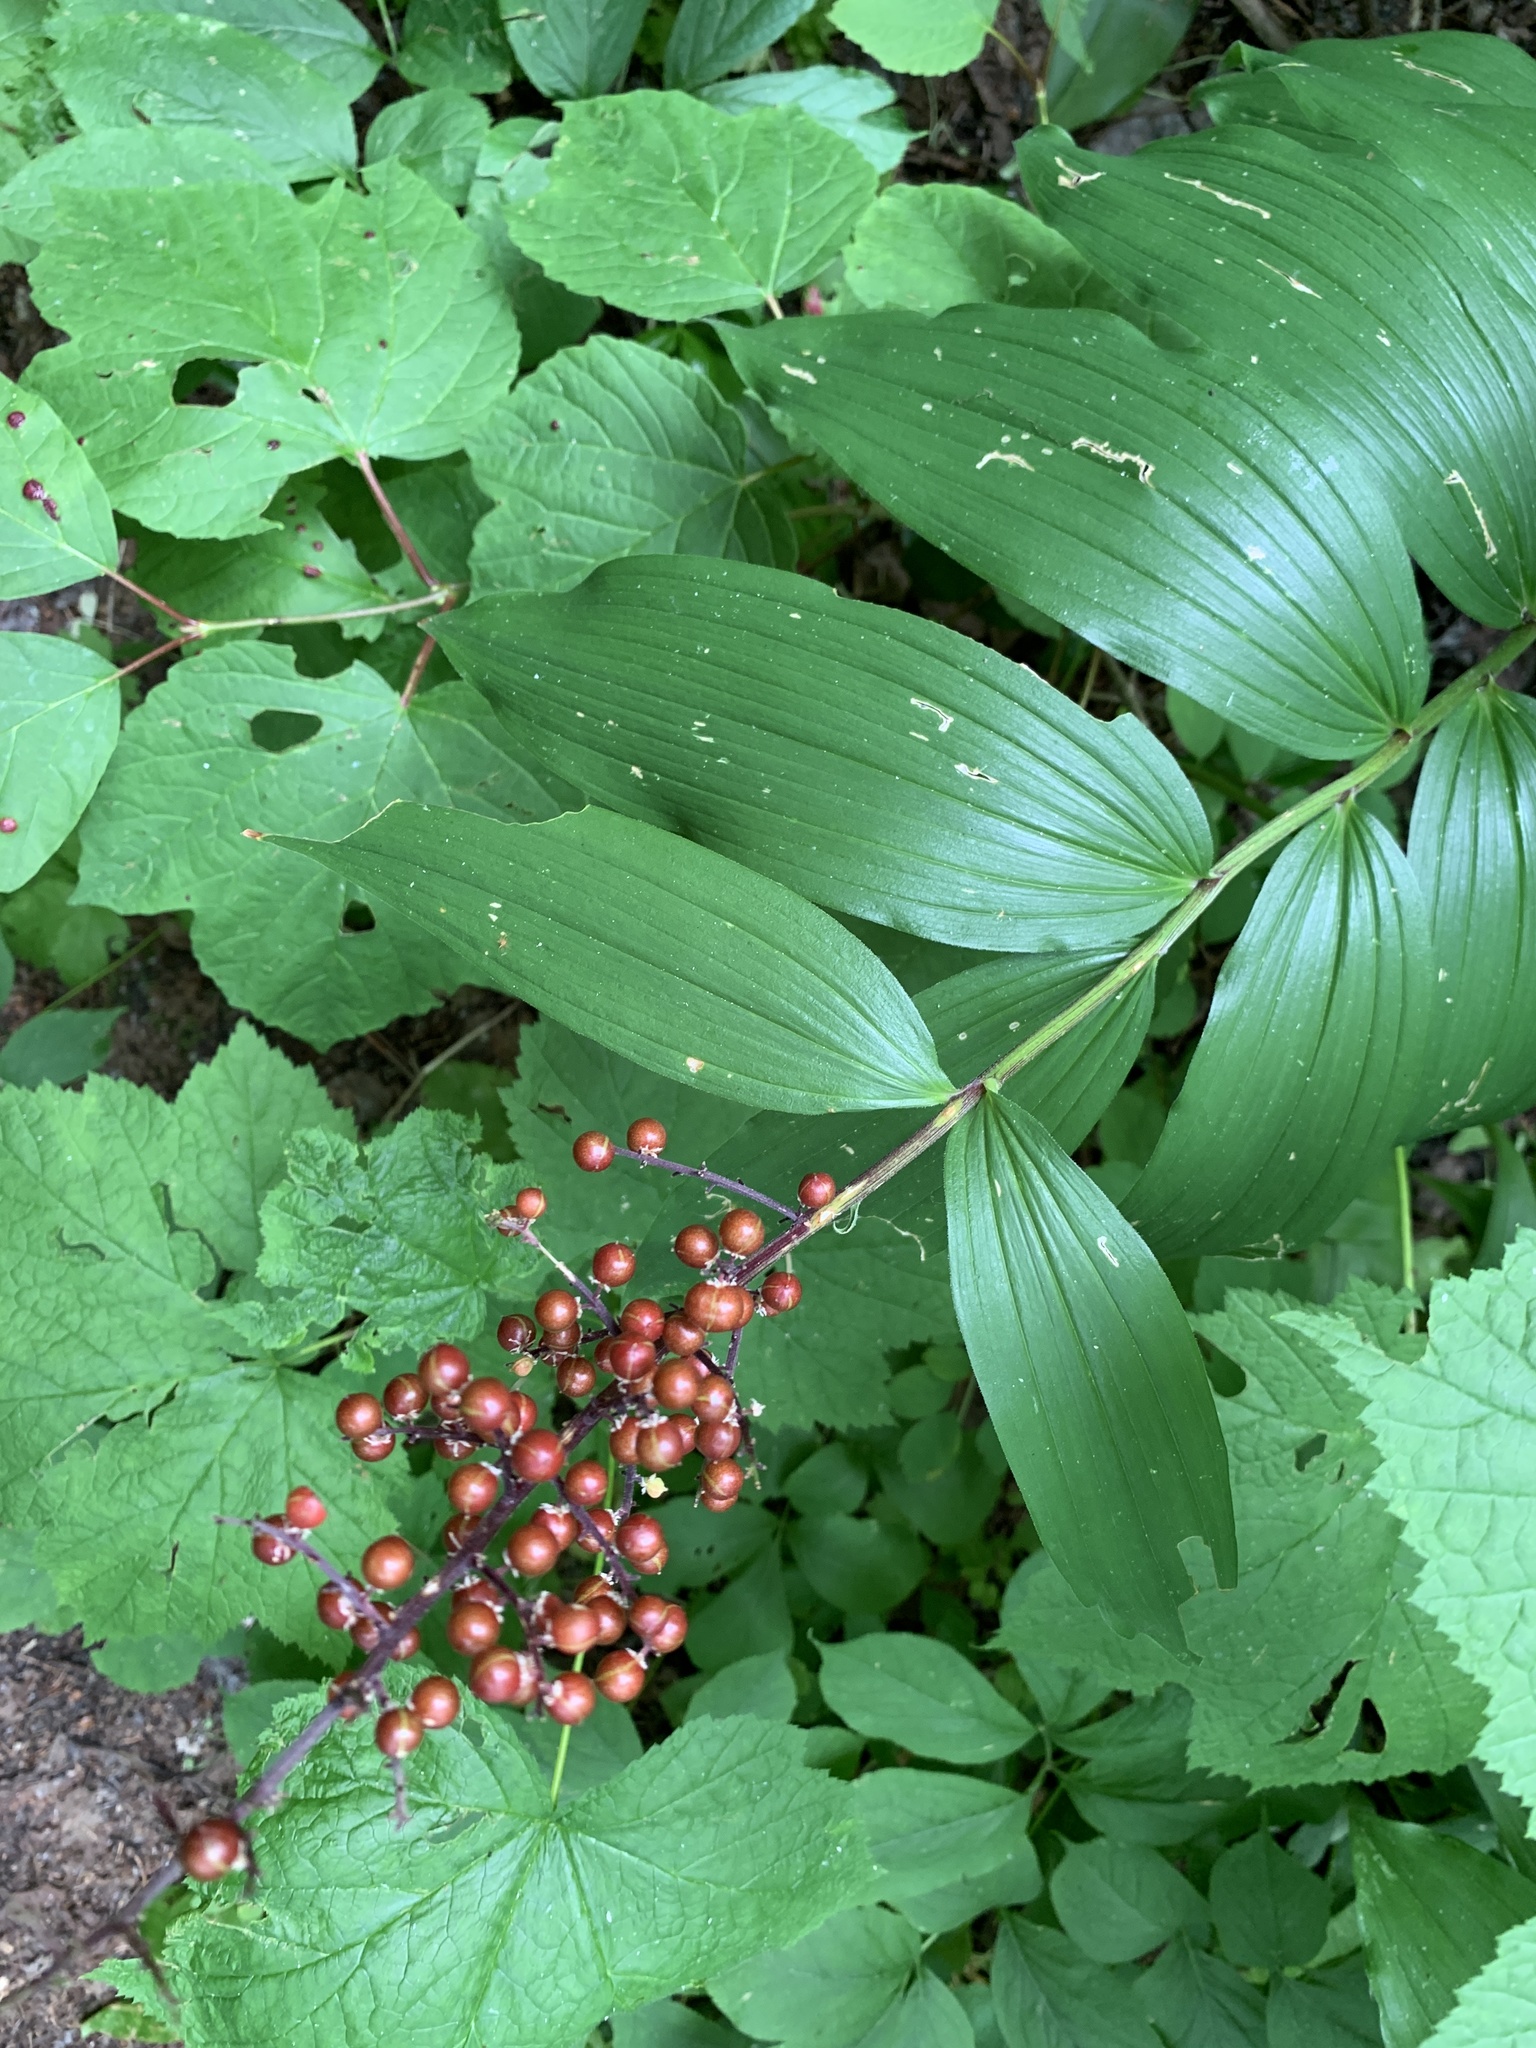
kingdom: Plantae
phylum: Tracheophyta
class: Liliopsida
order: Asparagales
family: Asparagaceae
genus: Maianthemum
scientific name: Maianthemum racemosum
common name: False spikenard
